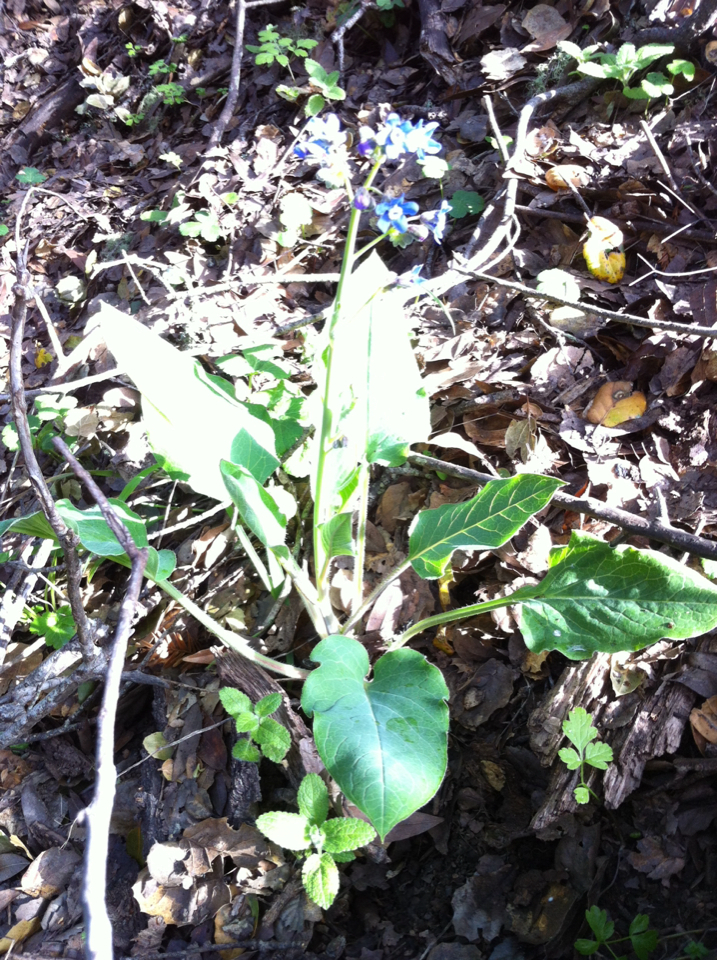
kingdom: Plantae
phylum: Tracheophyta
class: Magnoliopsida
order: Boraginales
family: Boraginaceae
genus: Adelinia
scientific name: Adelinia grande
